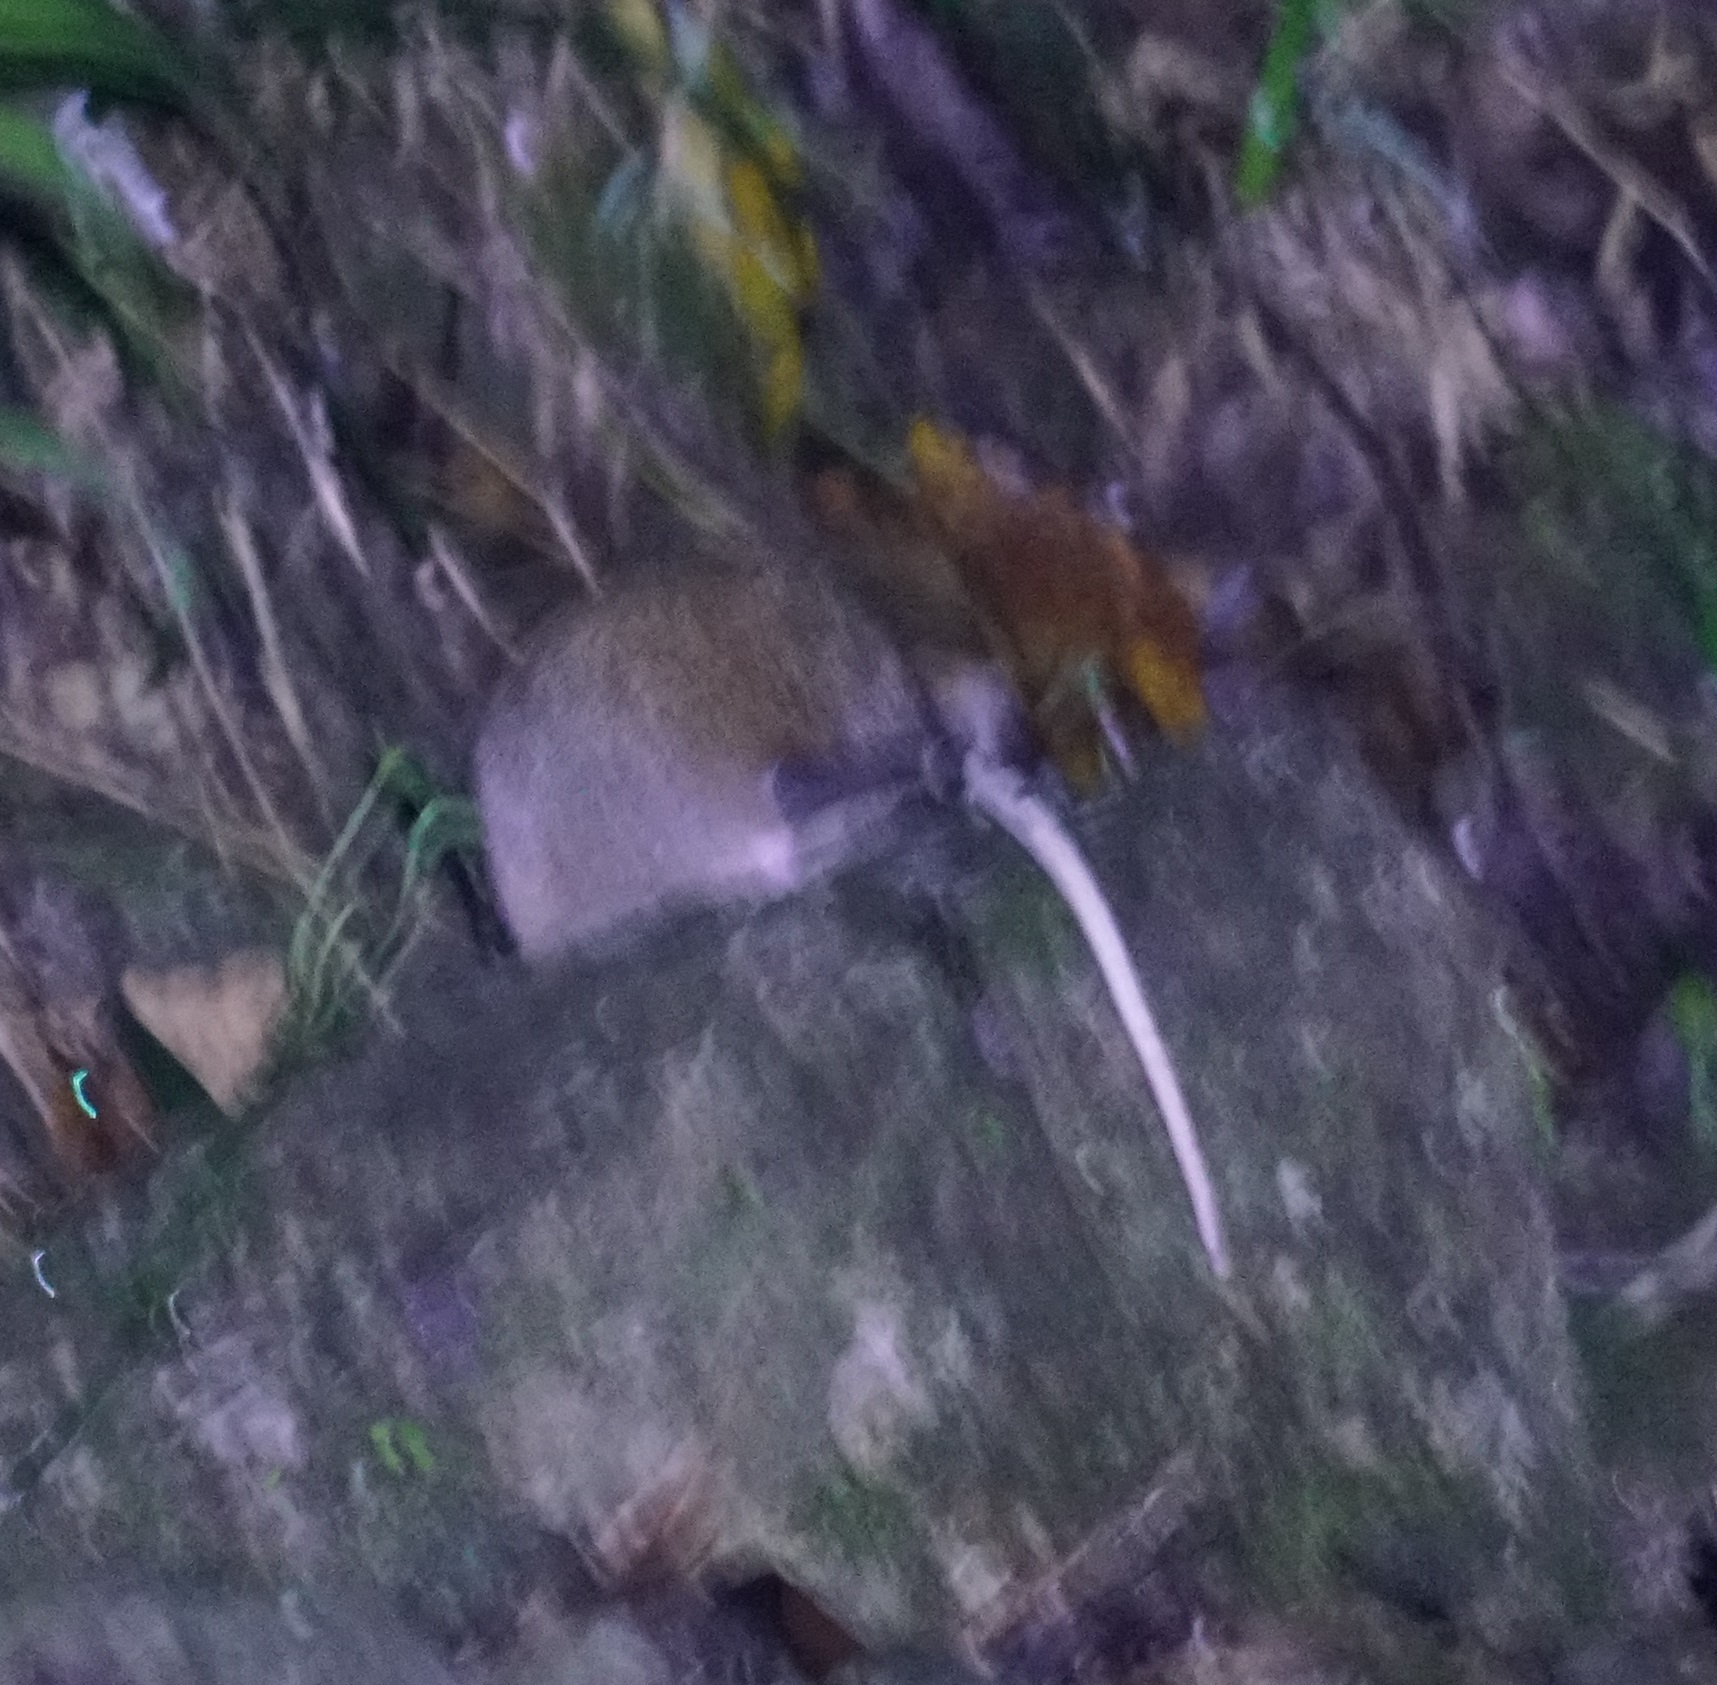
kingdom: Animalia
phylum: Chordata
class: Mammalia
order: Rodentia
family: Muridae
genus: Uromys
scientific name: Uromys caudimaculatus
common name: Giant white-tailed uromys
